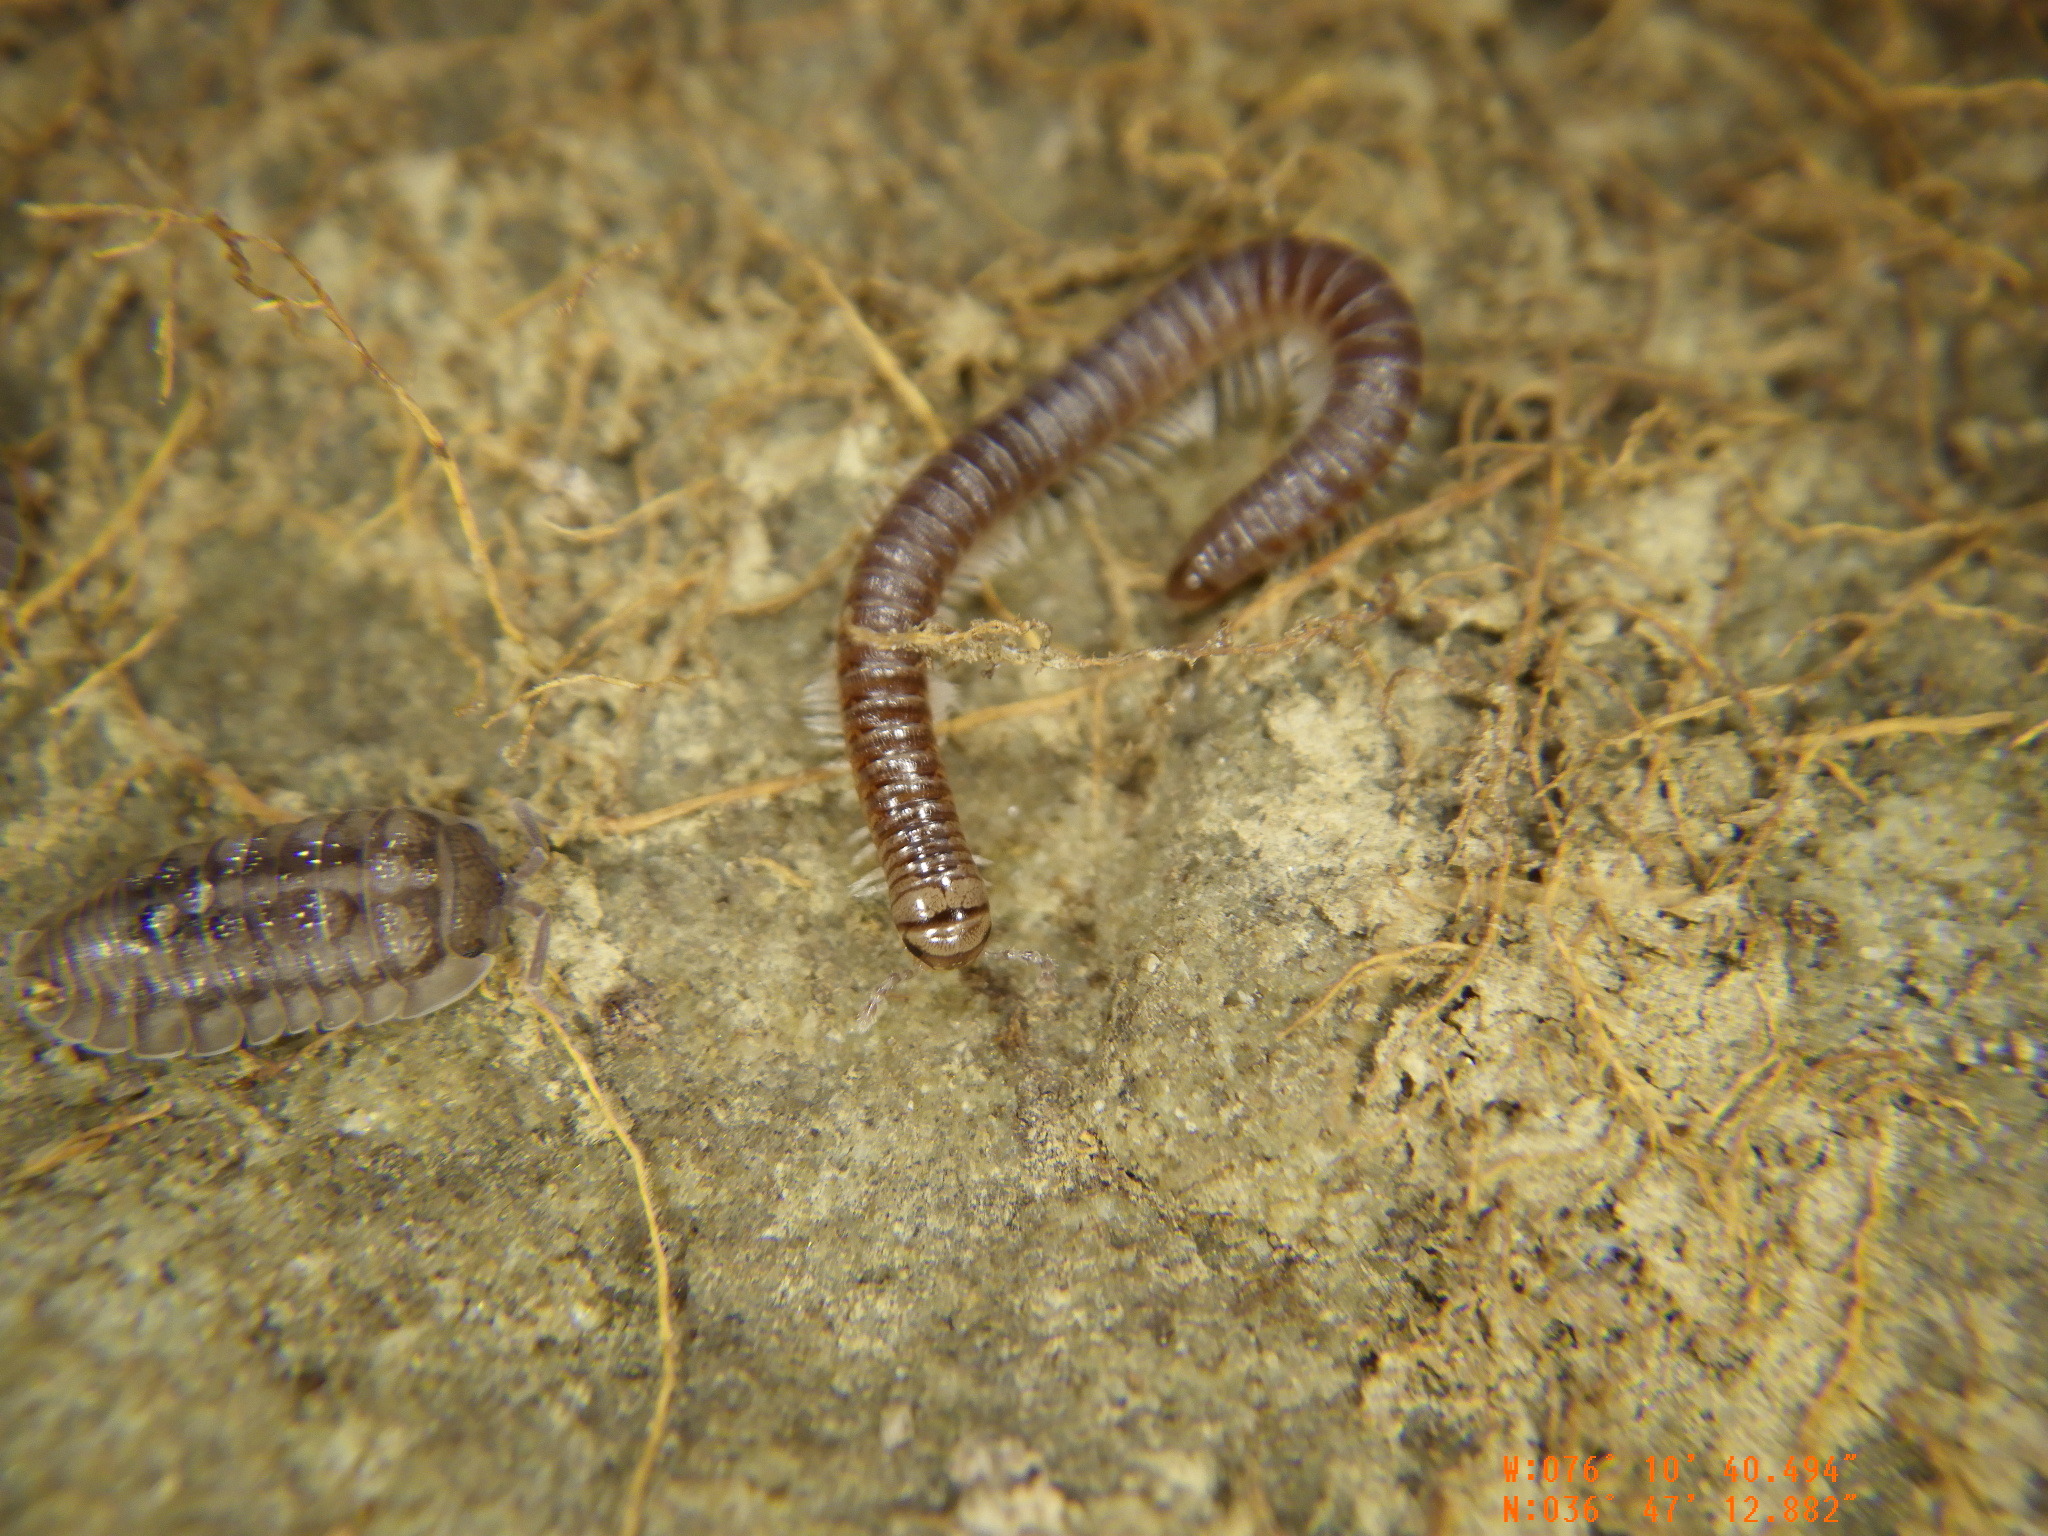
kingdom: Animalia
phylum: Arthropoda
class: Malacostraca
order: Isopoda
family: Armadillidiidae
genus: Armadillidium
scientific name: Armadillidium nasatum
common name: Isopod
